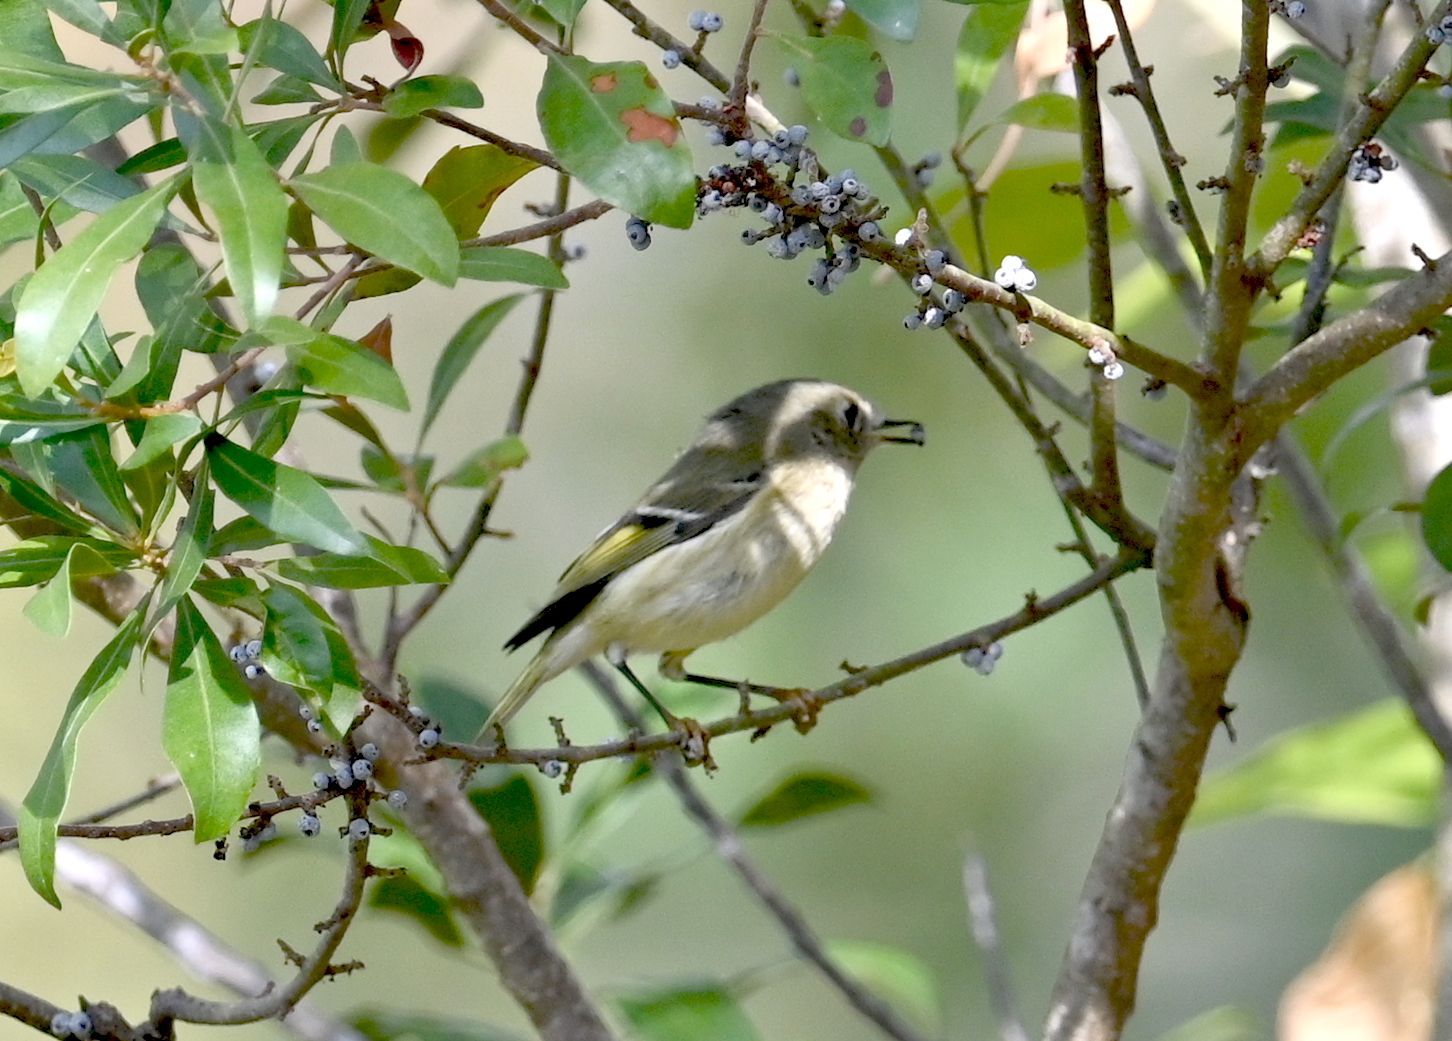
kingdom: Animalia
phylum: Chordata
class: Aves
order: Passeriformes
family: Regulidae
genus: Regulus
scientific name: Regulus calendula
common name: Ruby-crowned kinglet
